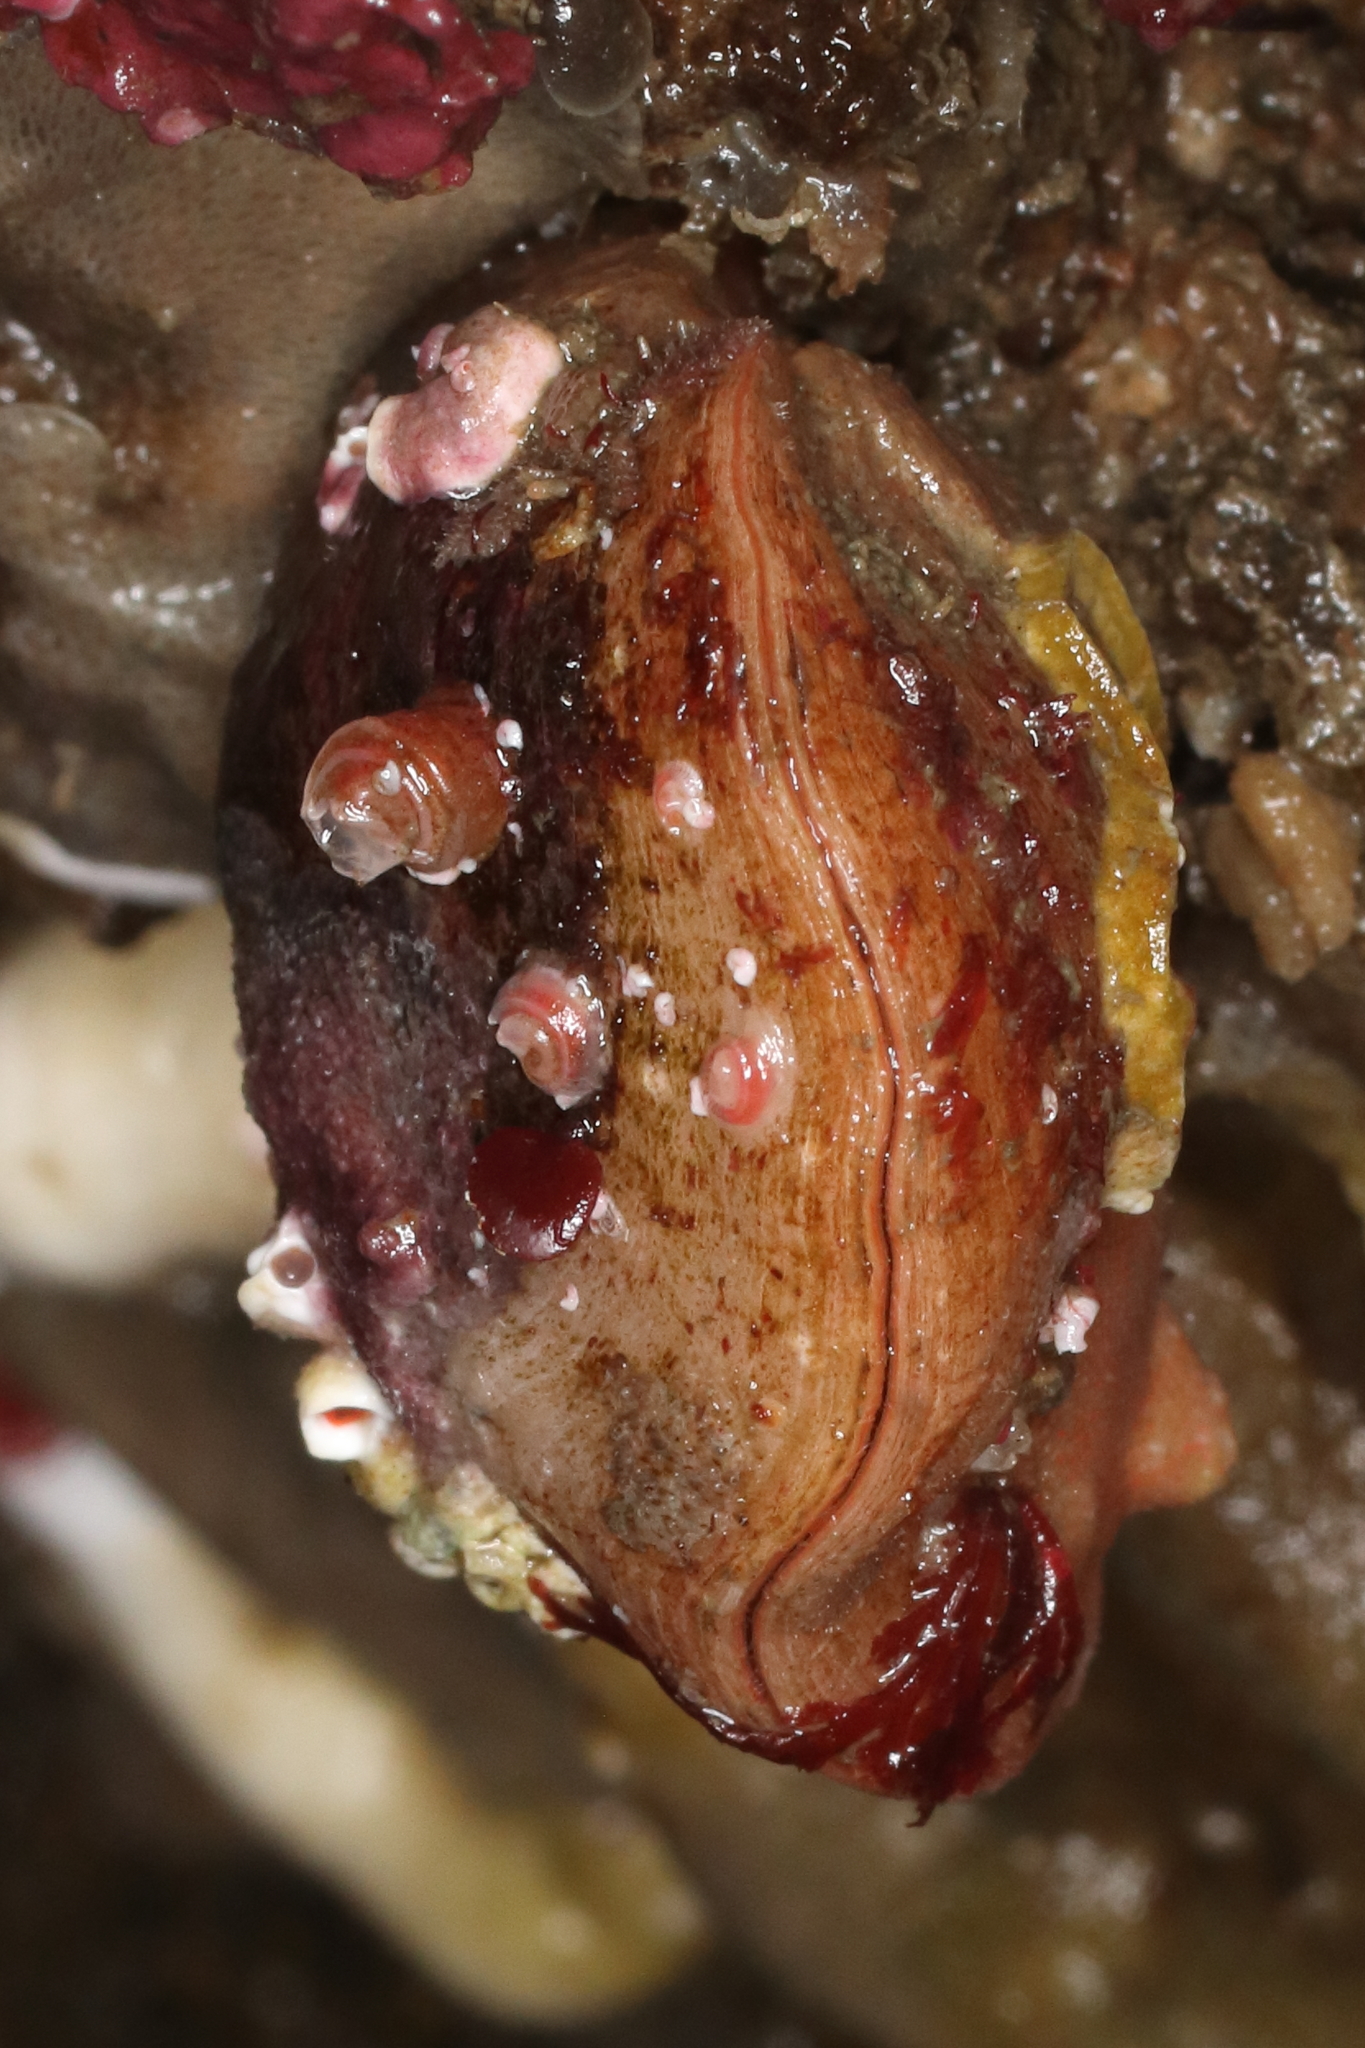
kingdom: Animalia
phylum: Brachiopoda
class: Rhynchonellata
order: Terebratulida
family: Terebrataliidae
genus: Terebratalia
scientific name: Terebratalia transversa
